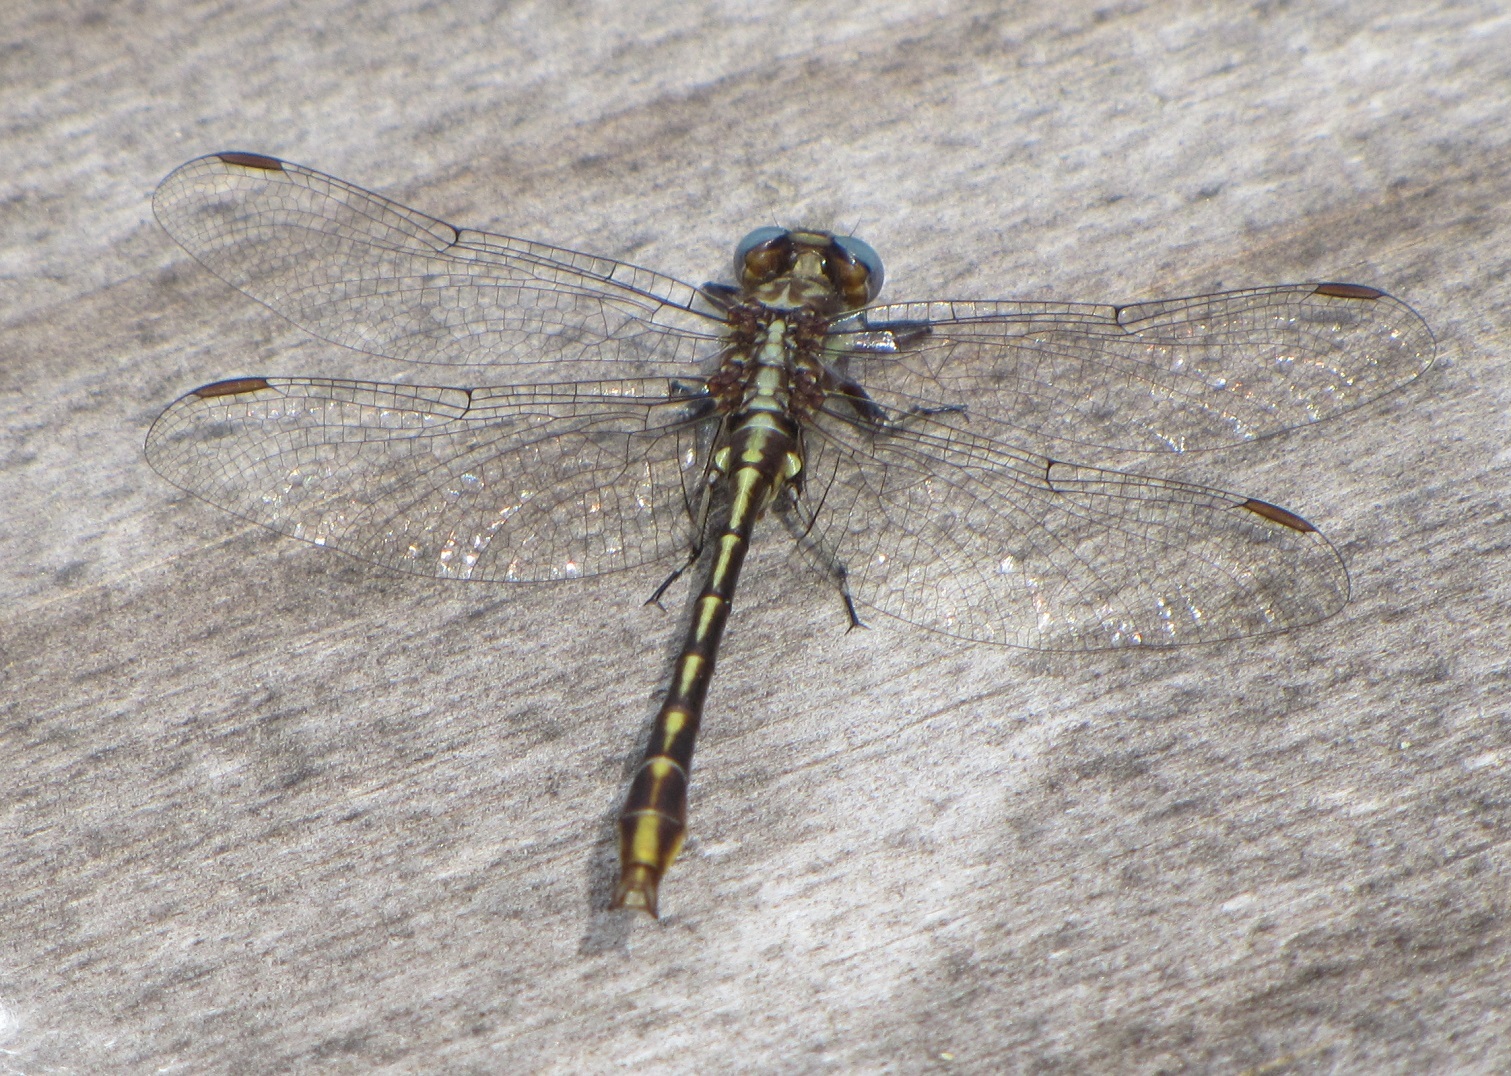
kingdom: Animalia
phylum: Arthropoda
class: Insecta
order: Odonata
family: Gomphidae
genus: Phanogomphus
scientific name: Phanogomphus exilis
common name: Lancet clubtail
